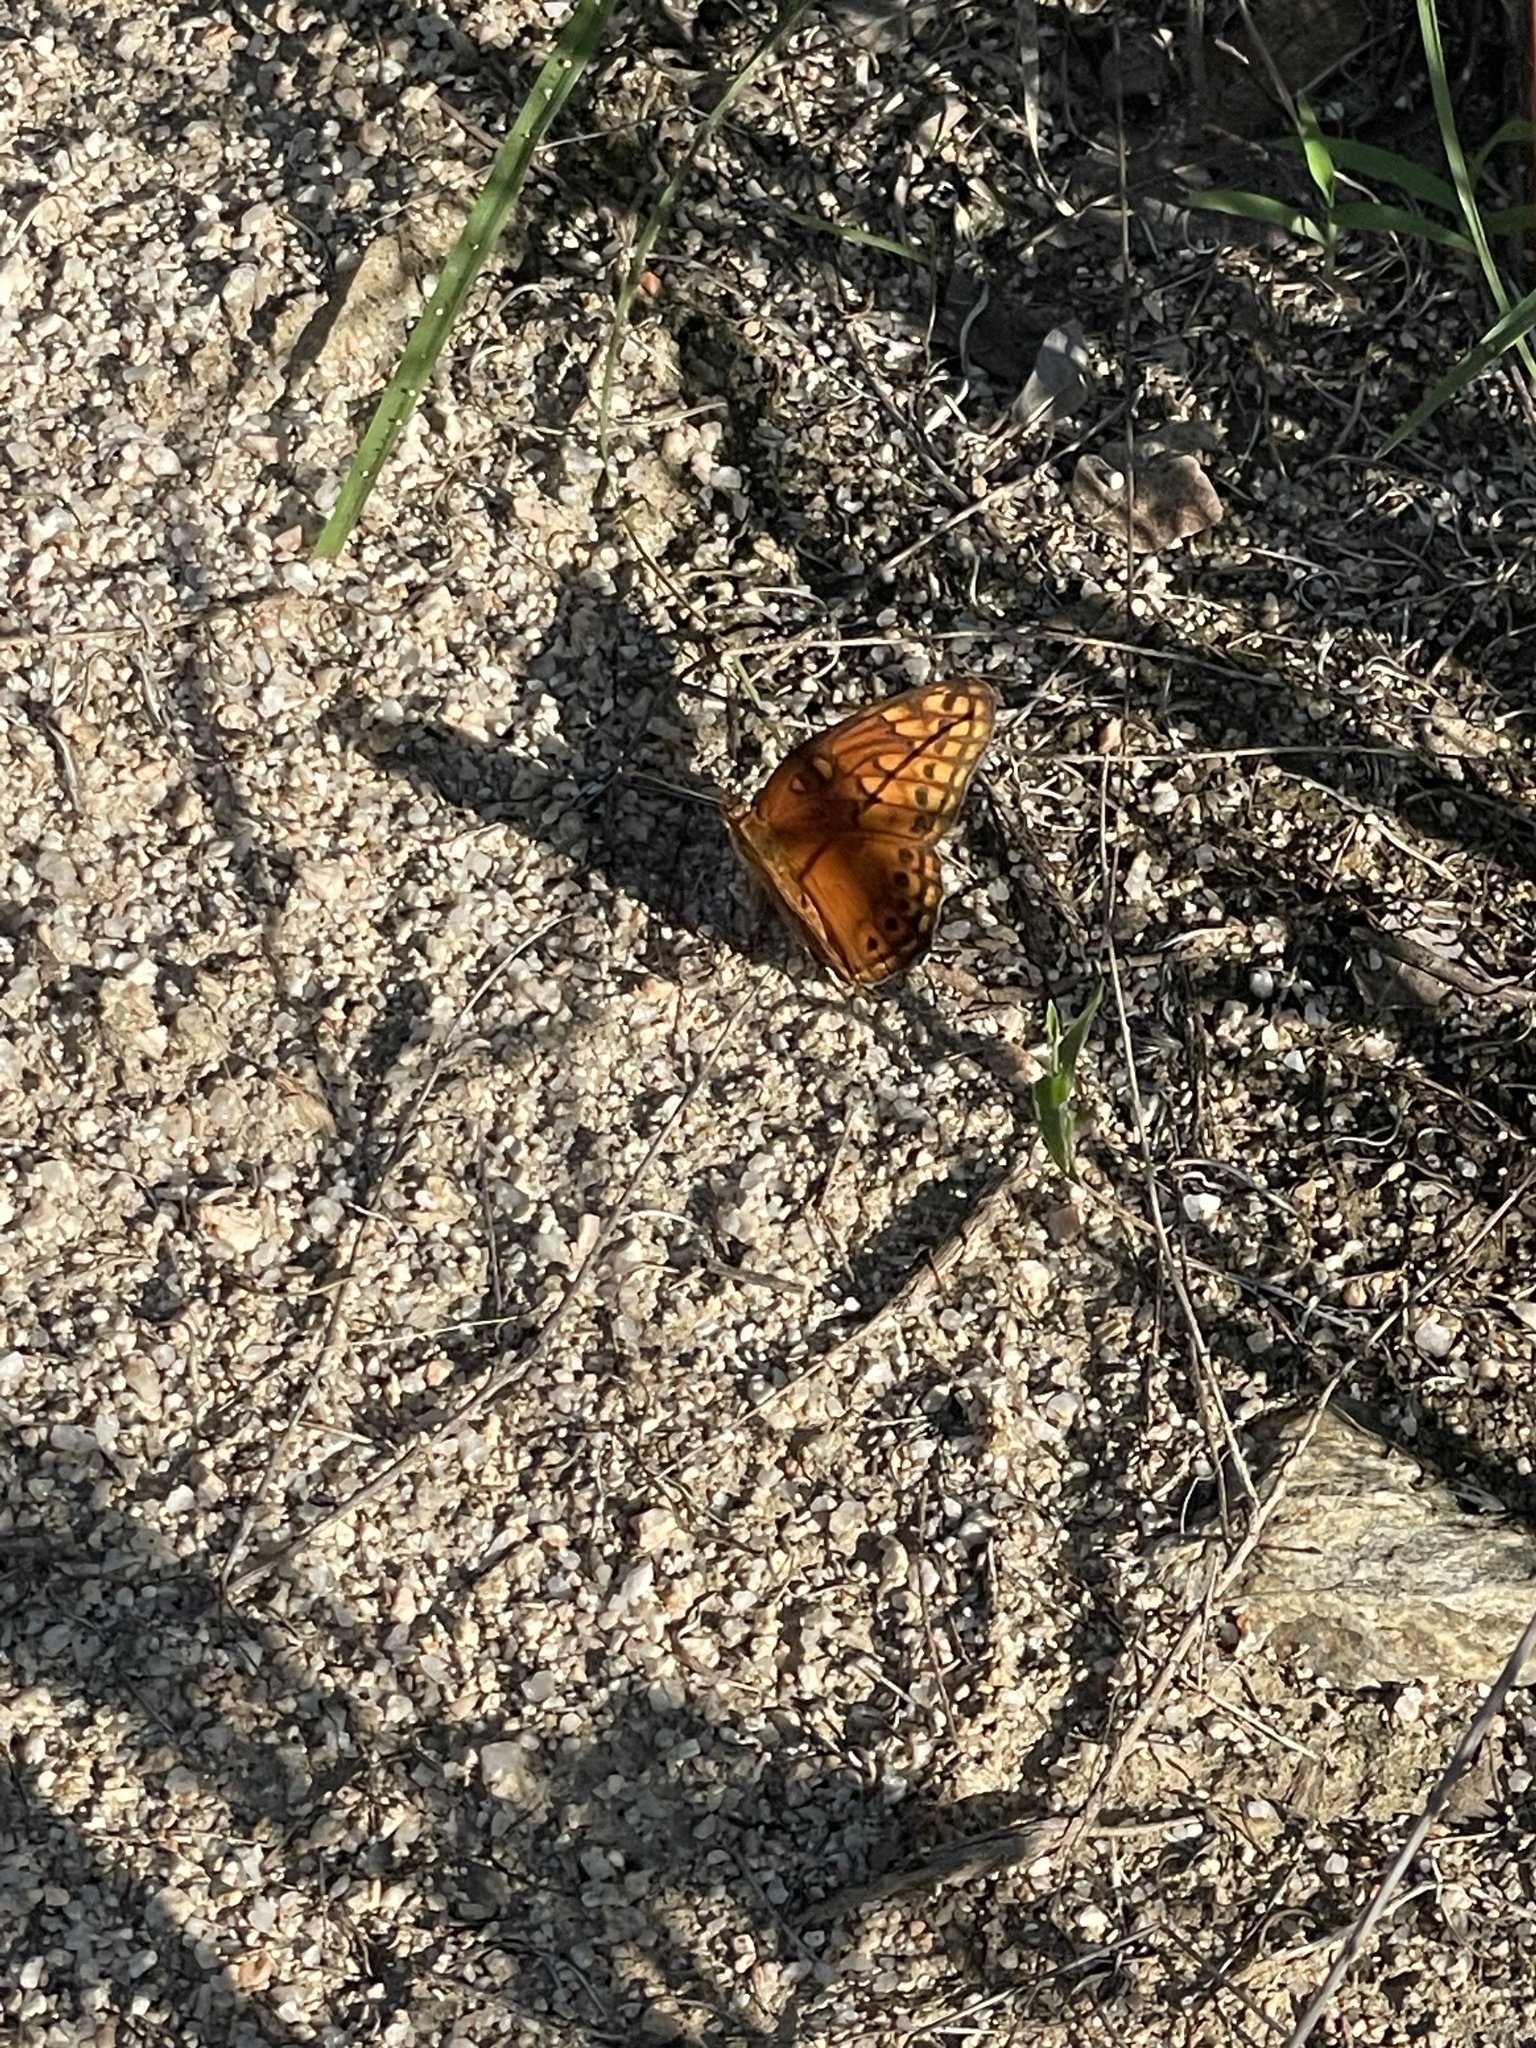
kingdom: Animalia
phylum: Arthropoda
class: Insecta
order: Lepidoptera
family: Nymphalidae
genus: Euptoieta
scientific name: Euptoieta hegesia
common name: Mexican fritillary
